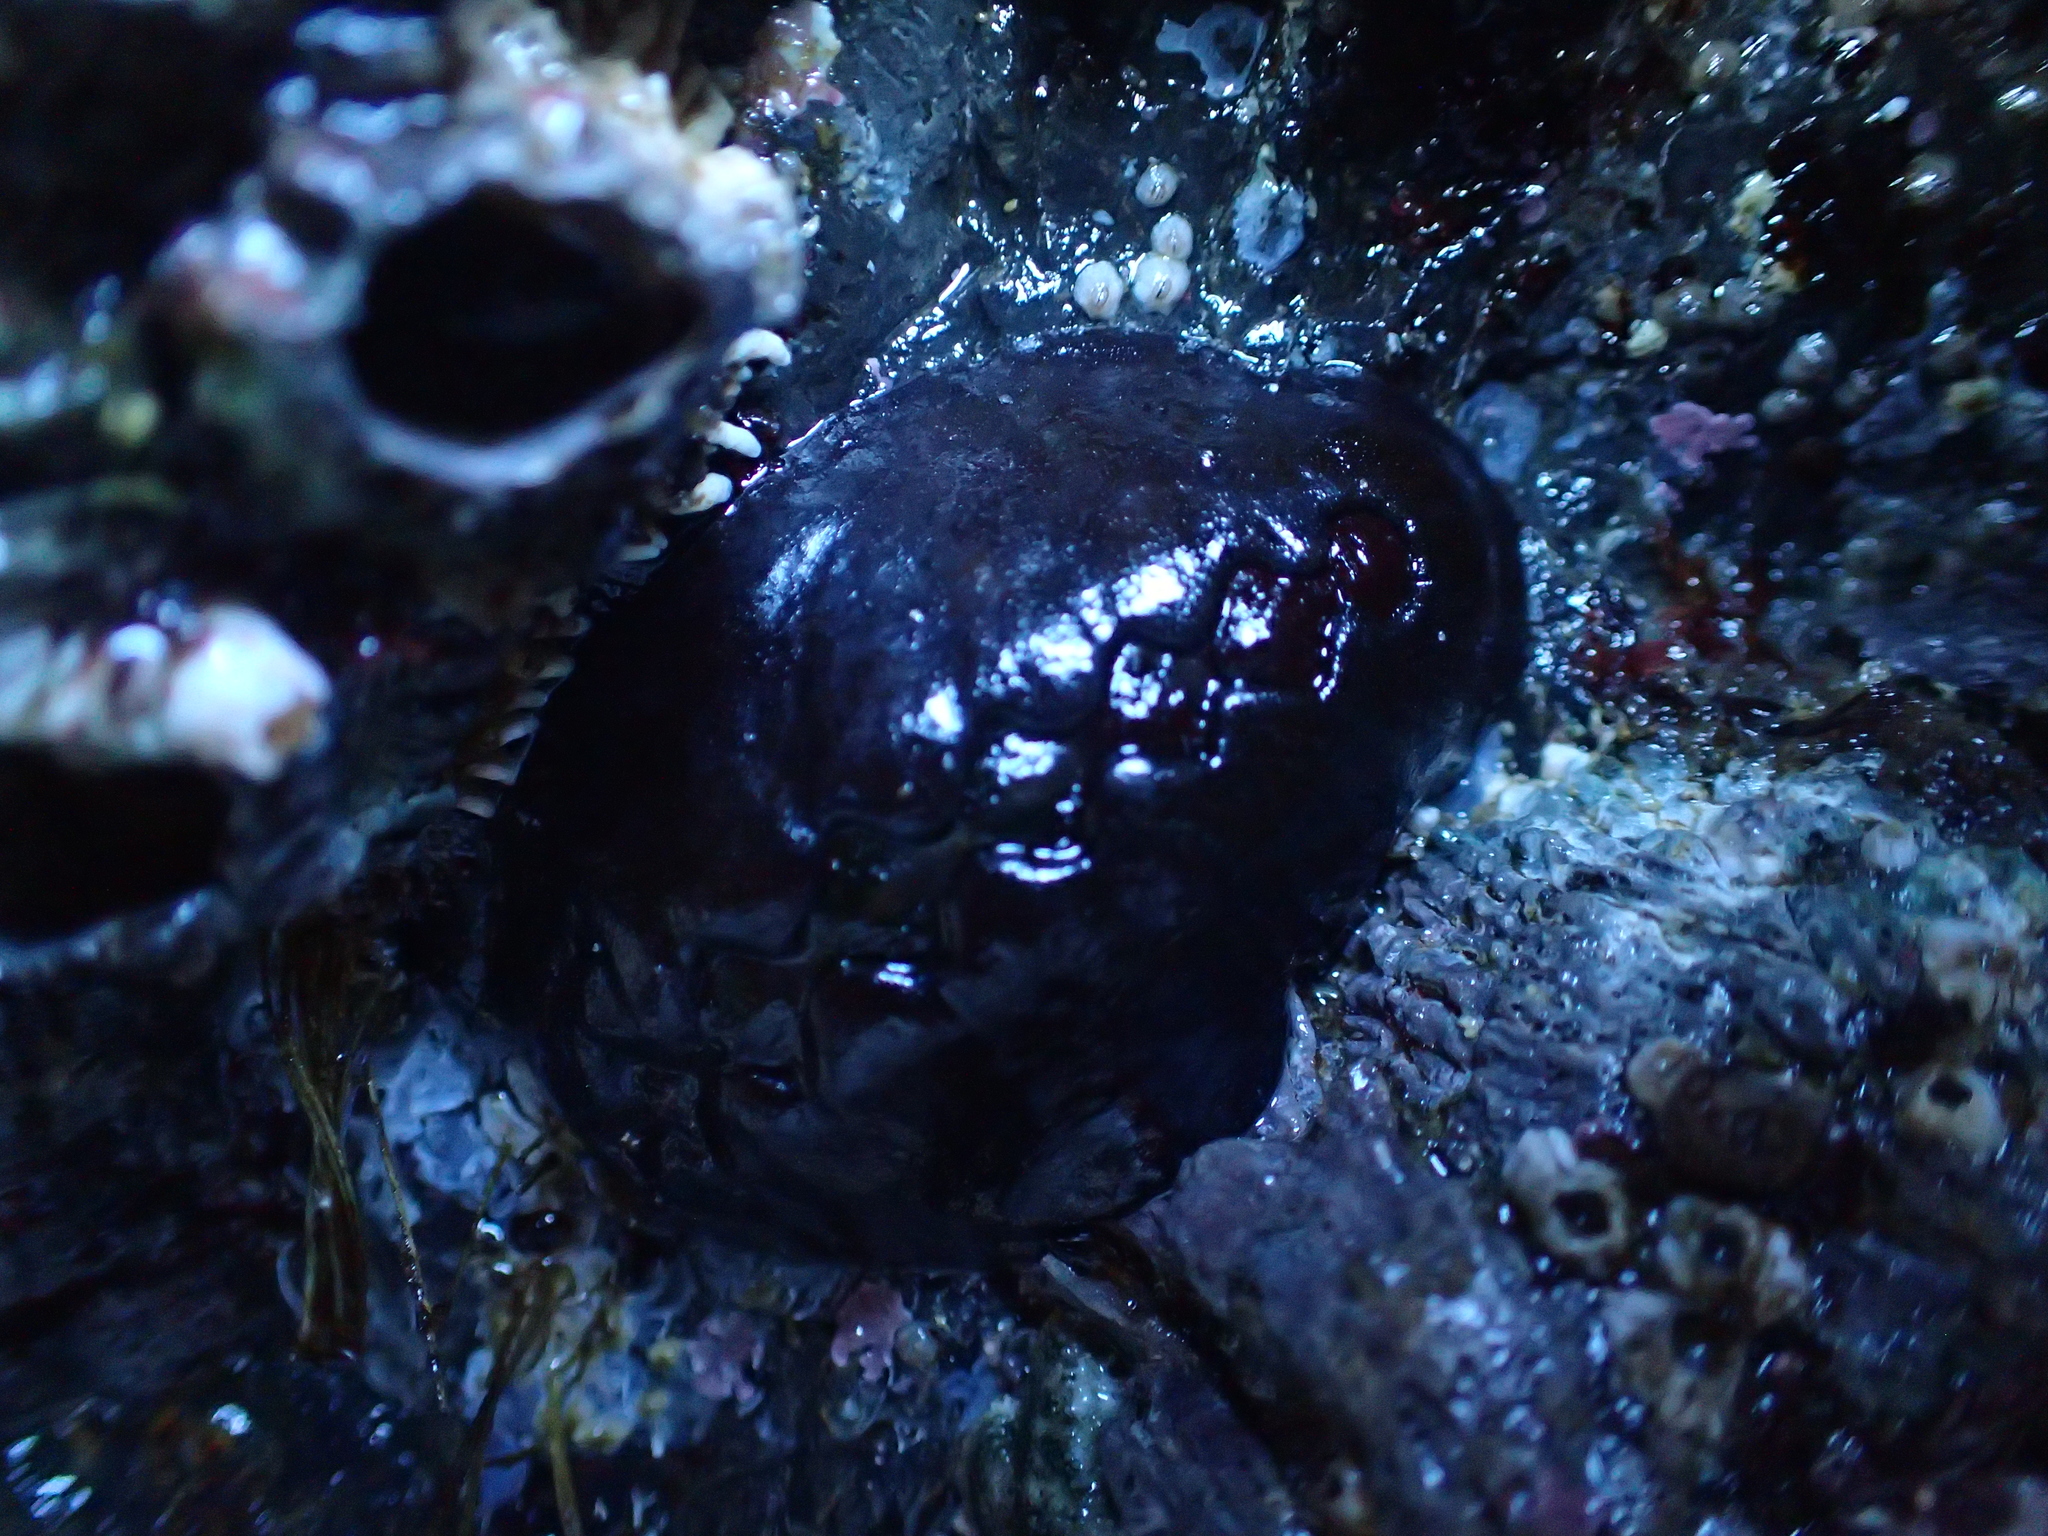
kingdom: Animalia
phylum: Mollusca
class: Polyplacophora
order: Chitonida
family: Mopaliidae
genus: Katharina
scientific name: Katharina tunicata
